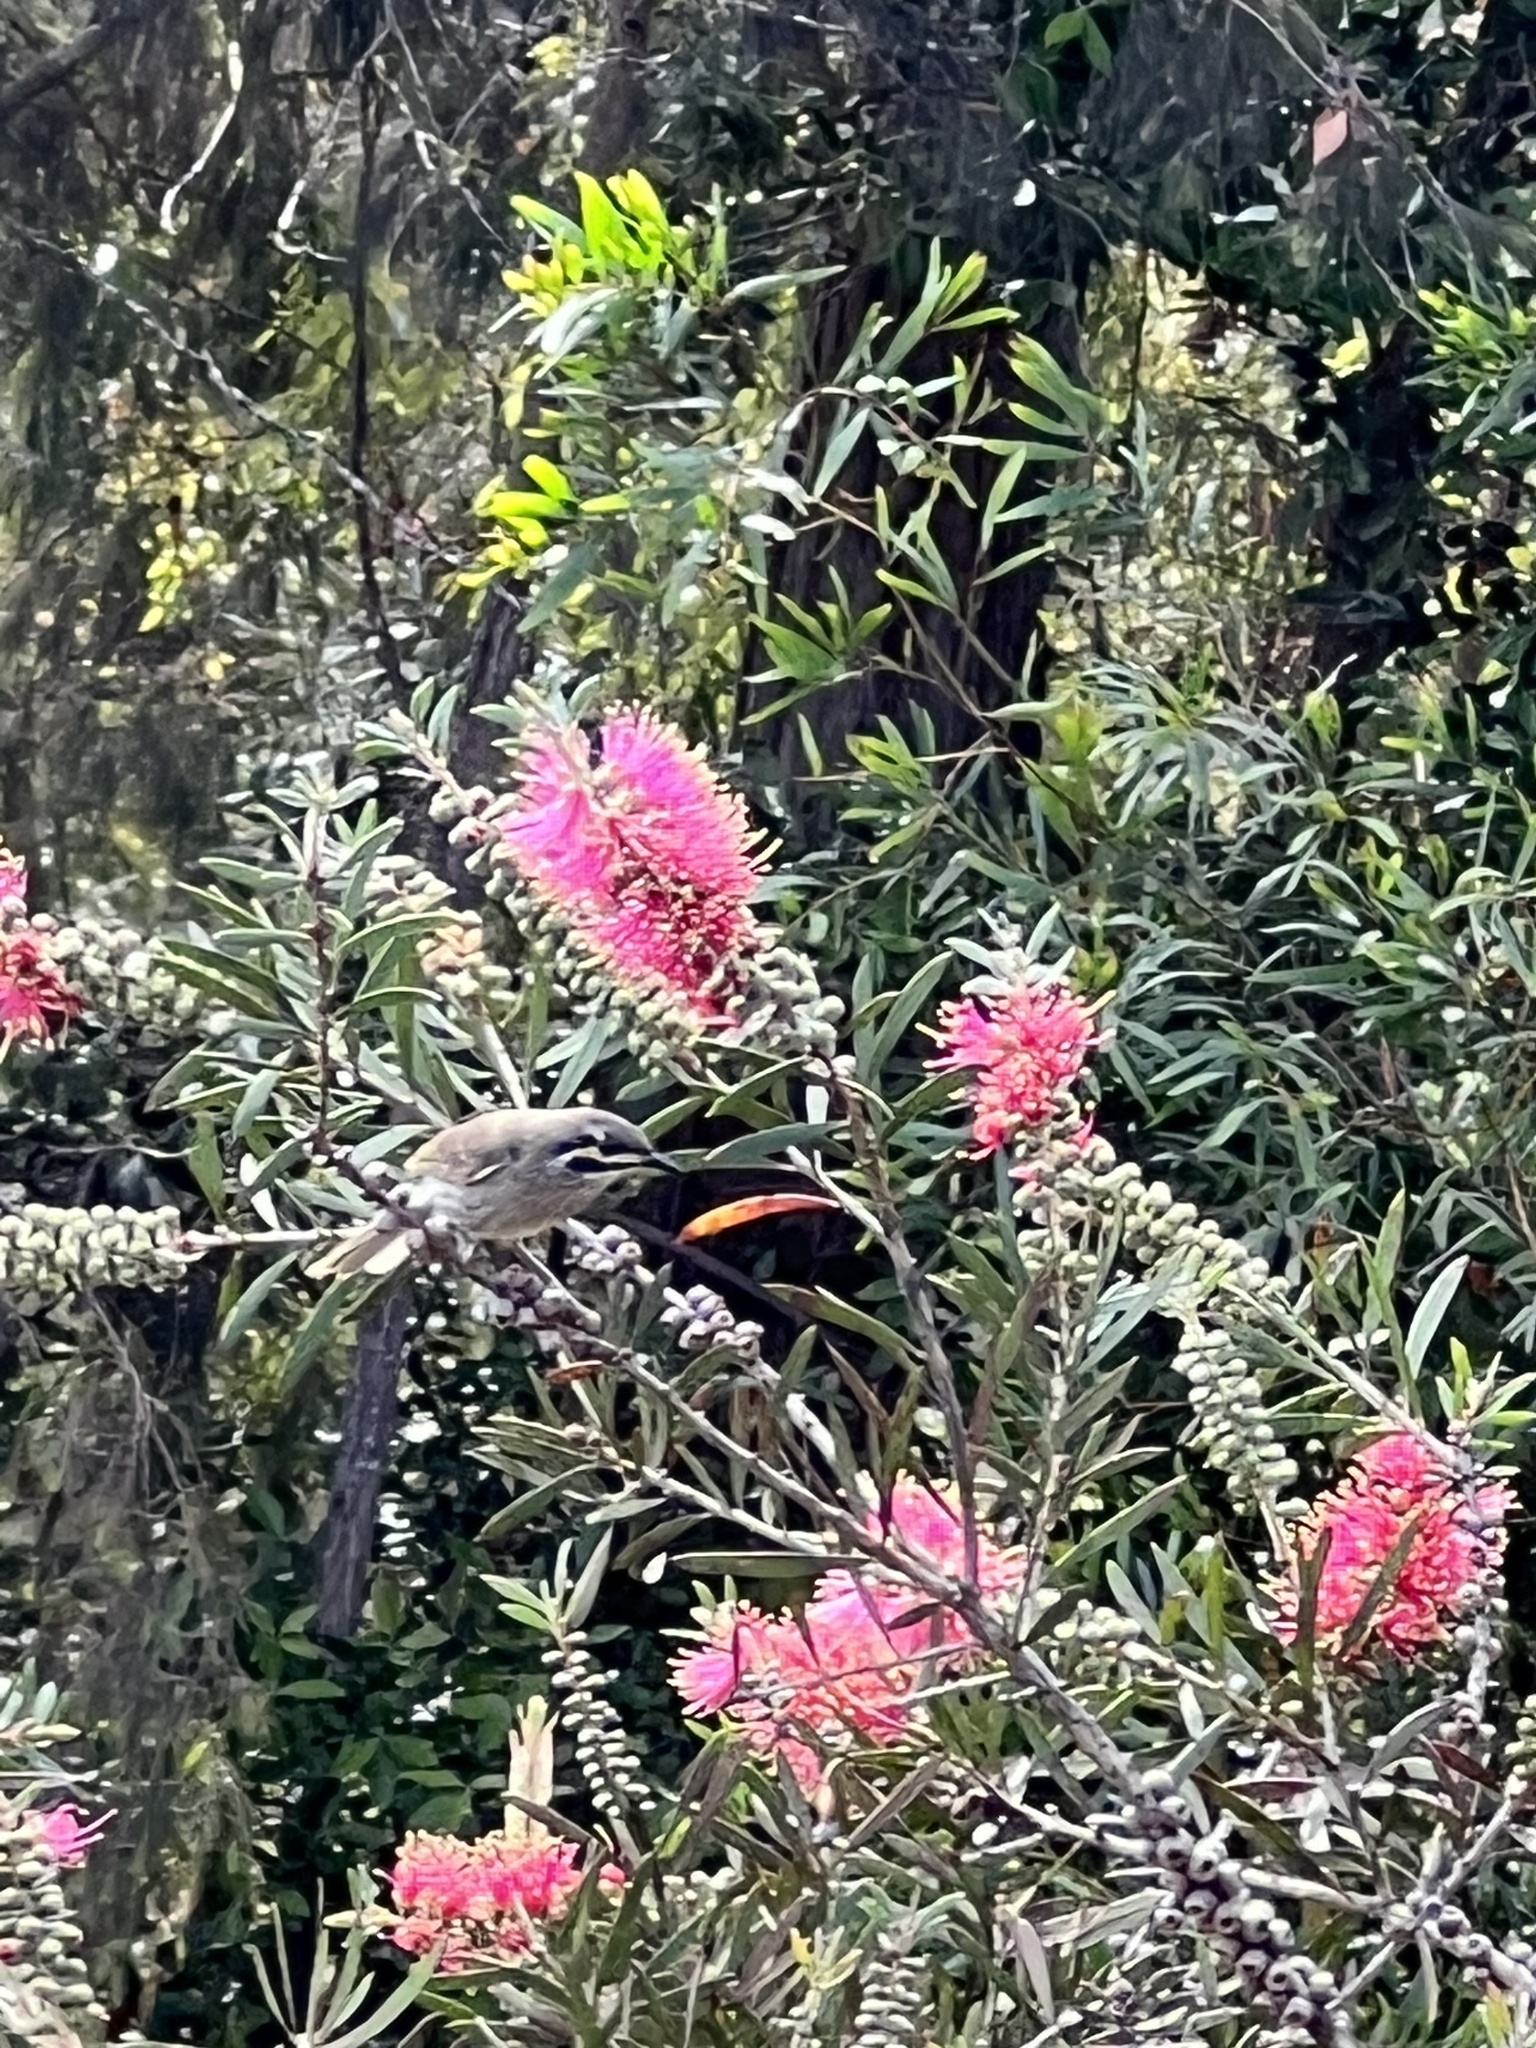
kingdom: Animalia
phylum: Chordata
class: Aves
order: Passeriformes
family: Meliphagidae
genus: Caligavis
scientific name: Caligavis chrysops
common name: Yellow-faced honeyeater
